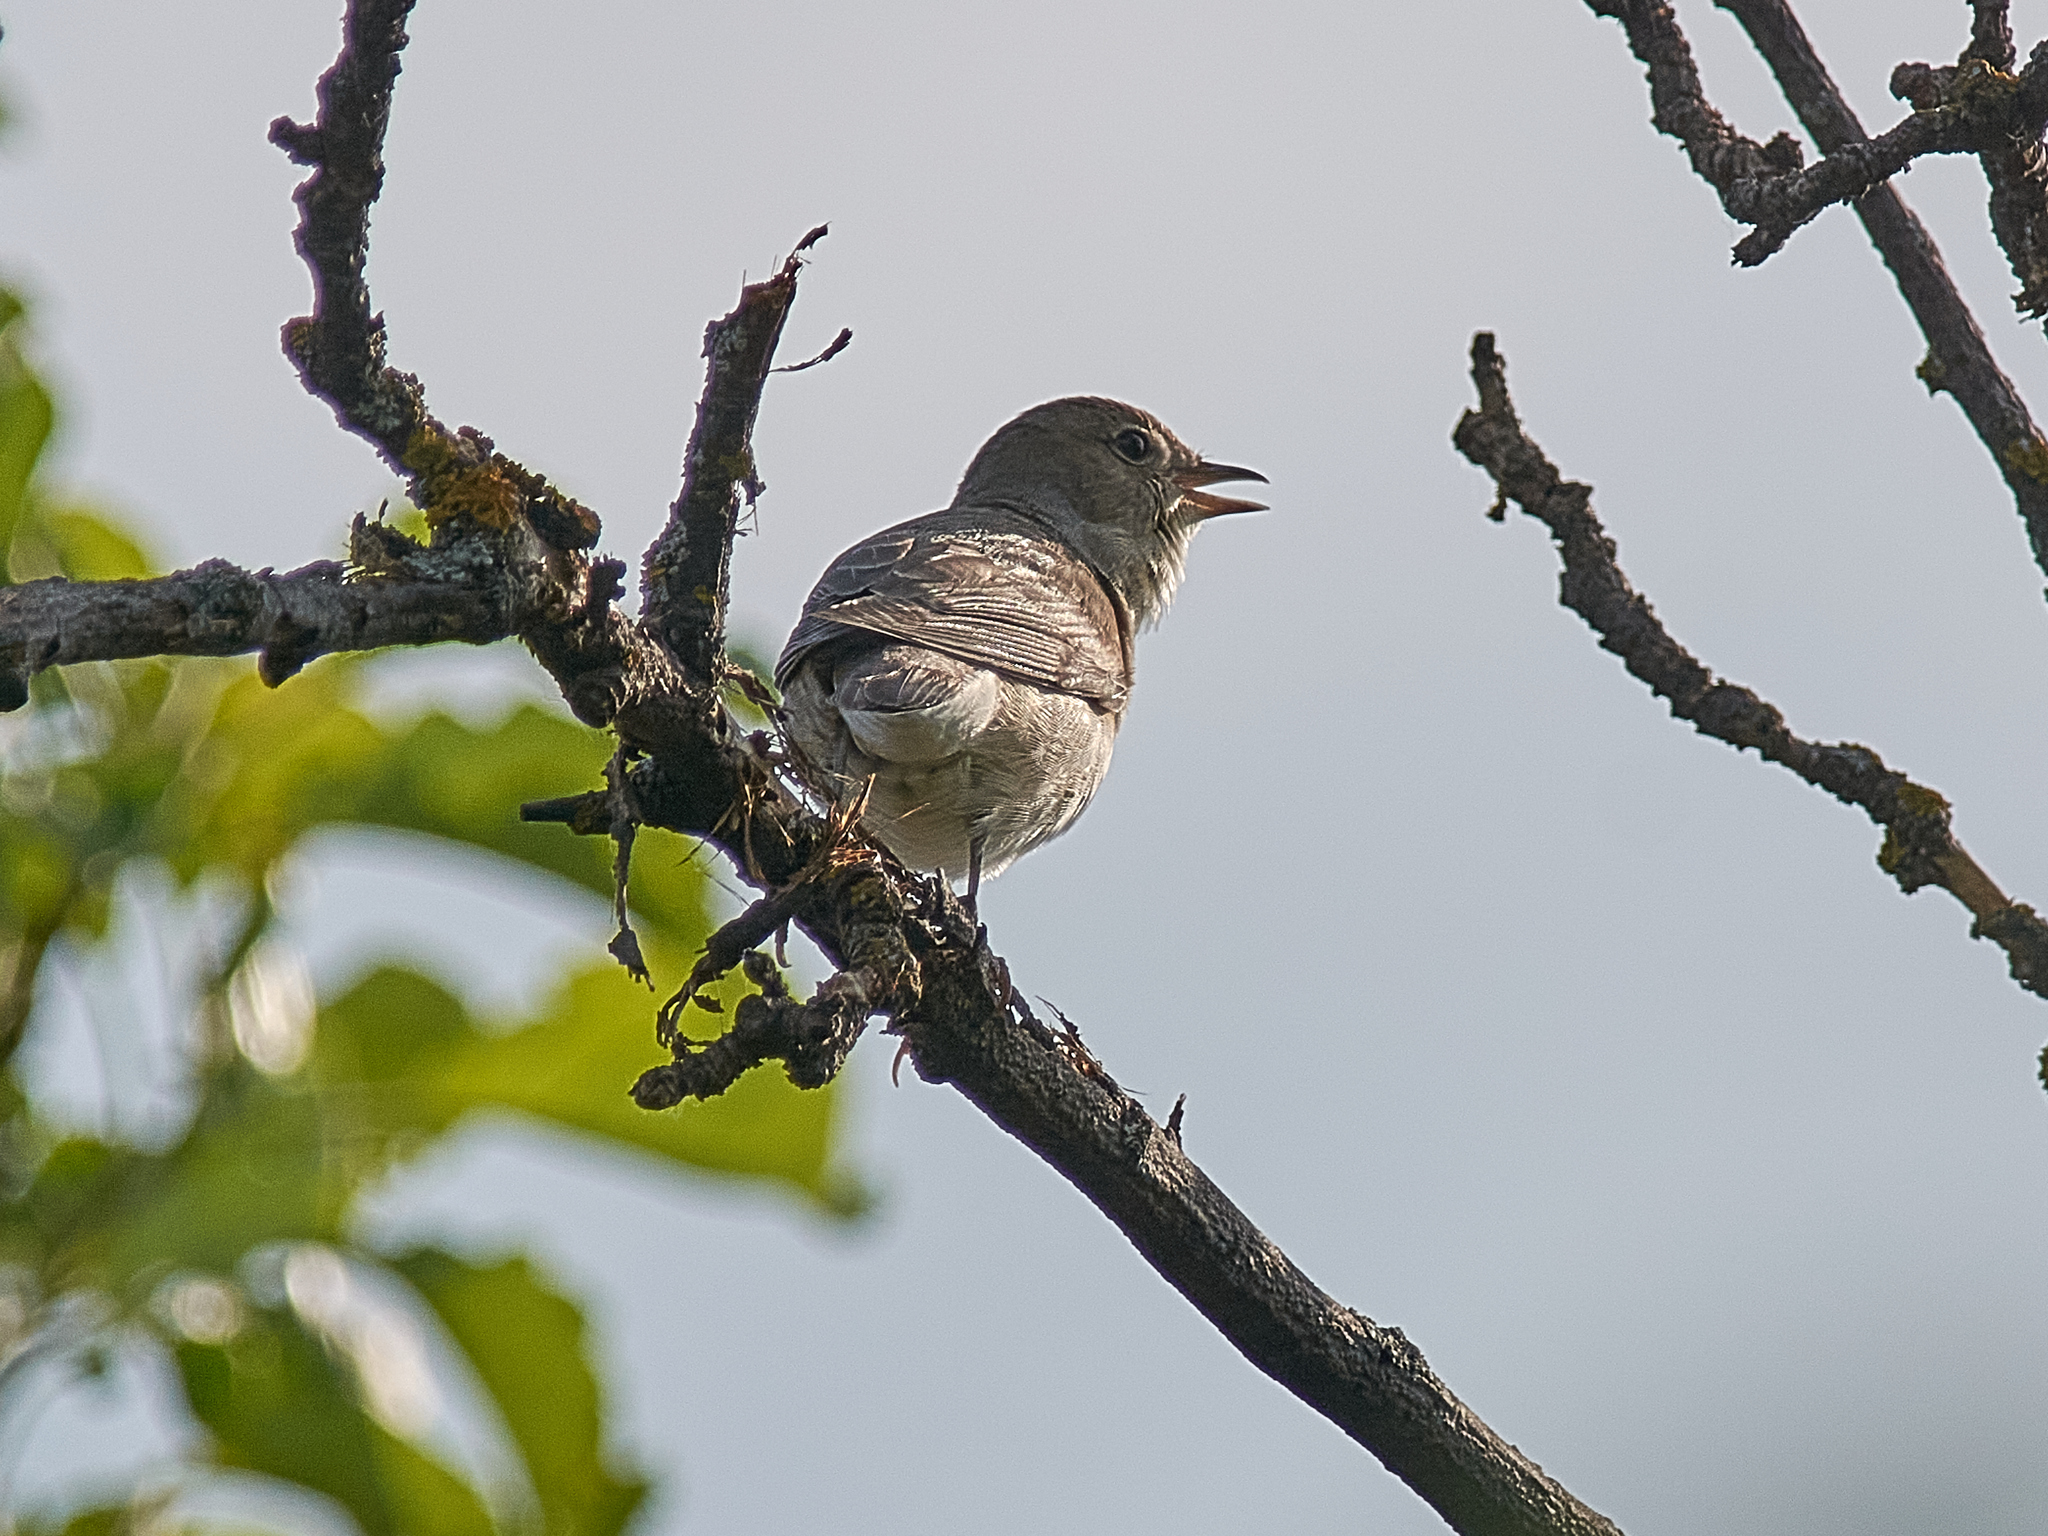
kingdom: Animalia
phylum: Chordata
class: Aves
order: Passeriformes
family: Sylviidae
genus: Sylvia
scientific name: Sylvia communis
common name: Common whitethroat
